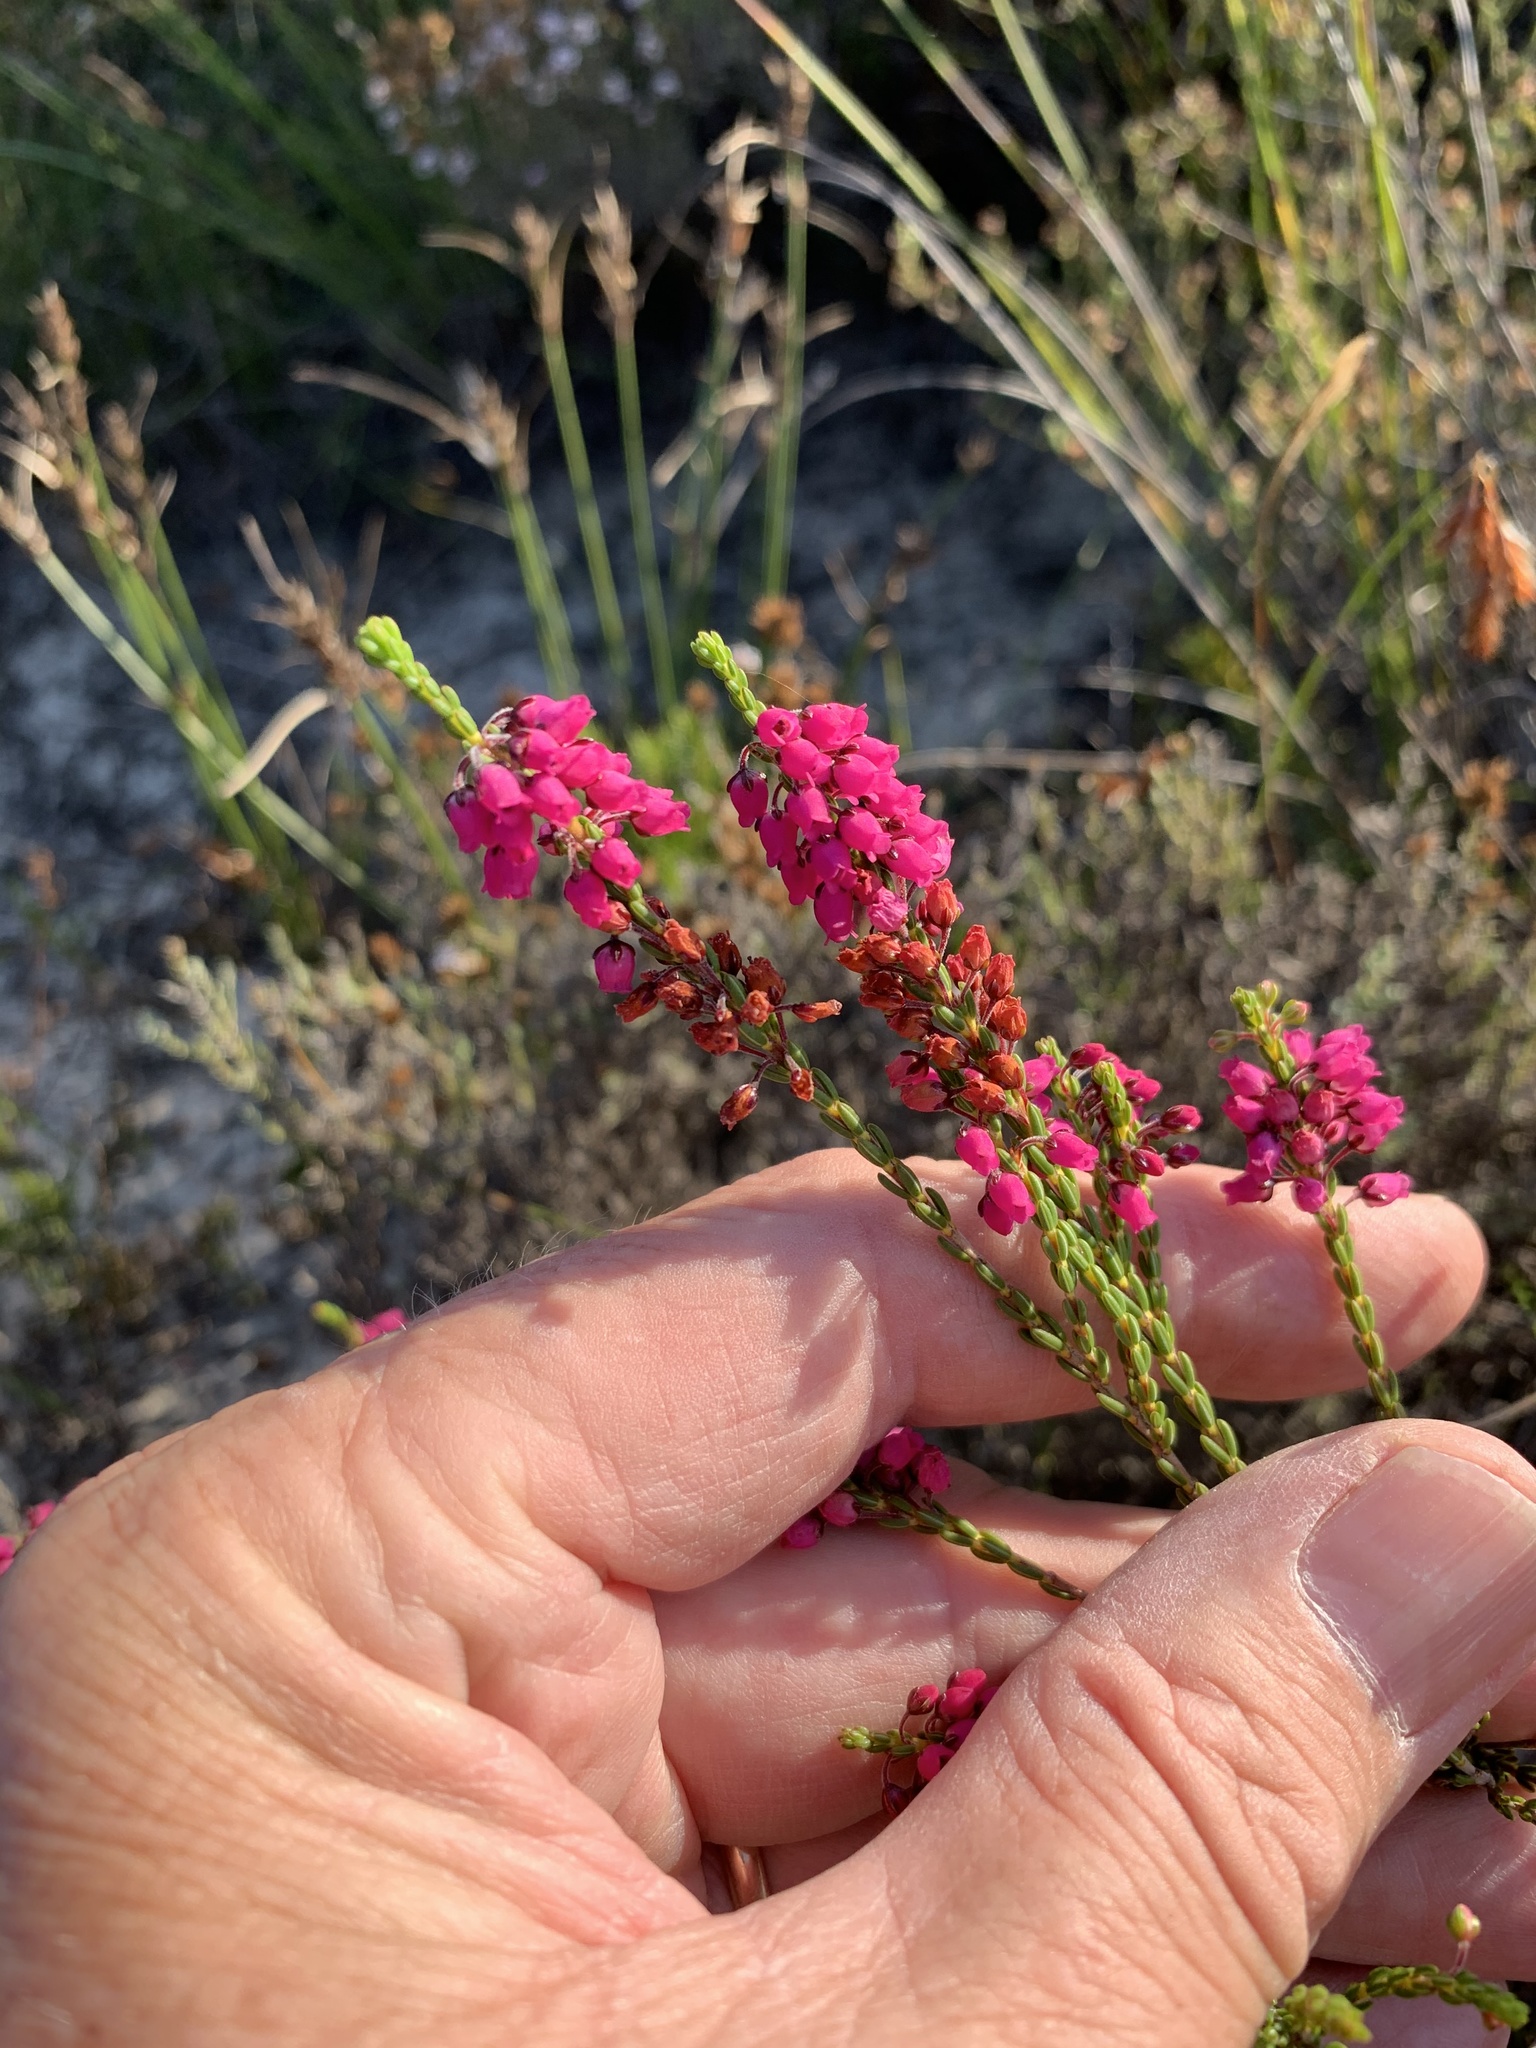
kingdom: Plantae
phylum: Tracheophyta
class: Magnoliopsida
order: Ericales
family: Ericaceae
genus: Erica
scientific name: Erica pulchella
